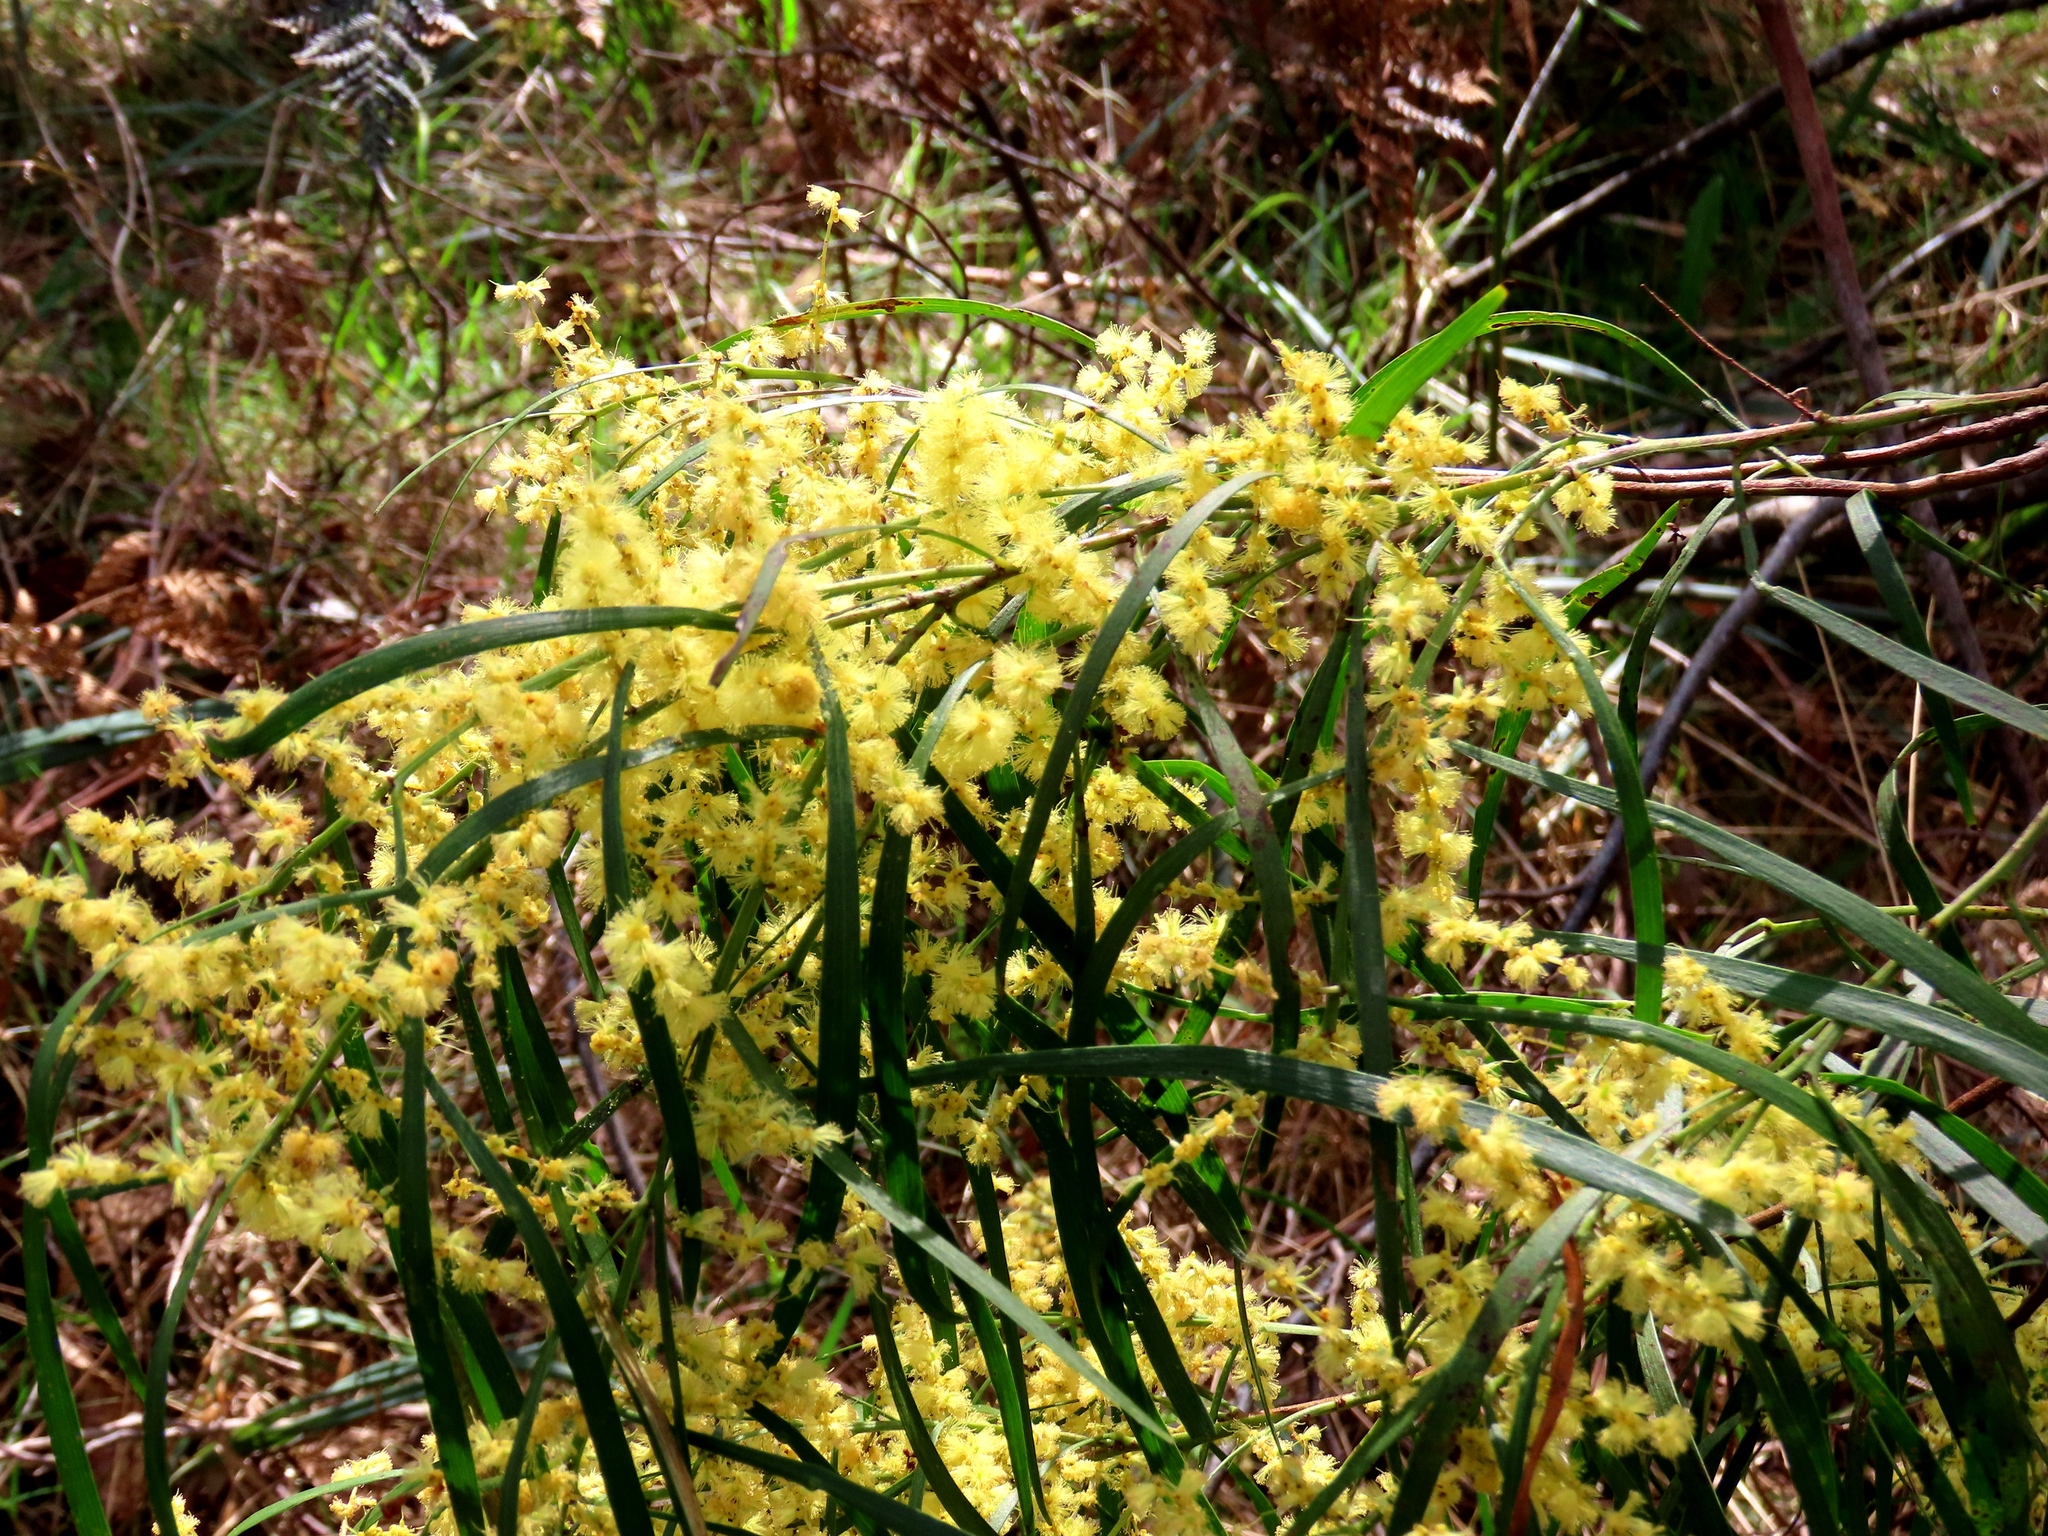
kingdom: Plantae
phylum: Tracheophyta
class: Magnoliopsida
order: Fabales
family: Fabaceae
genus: Acacia
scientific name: Acacia mucronata
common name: Variable sallow wattle
